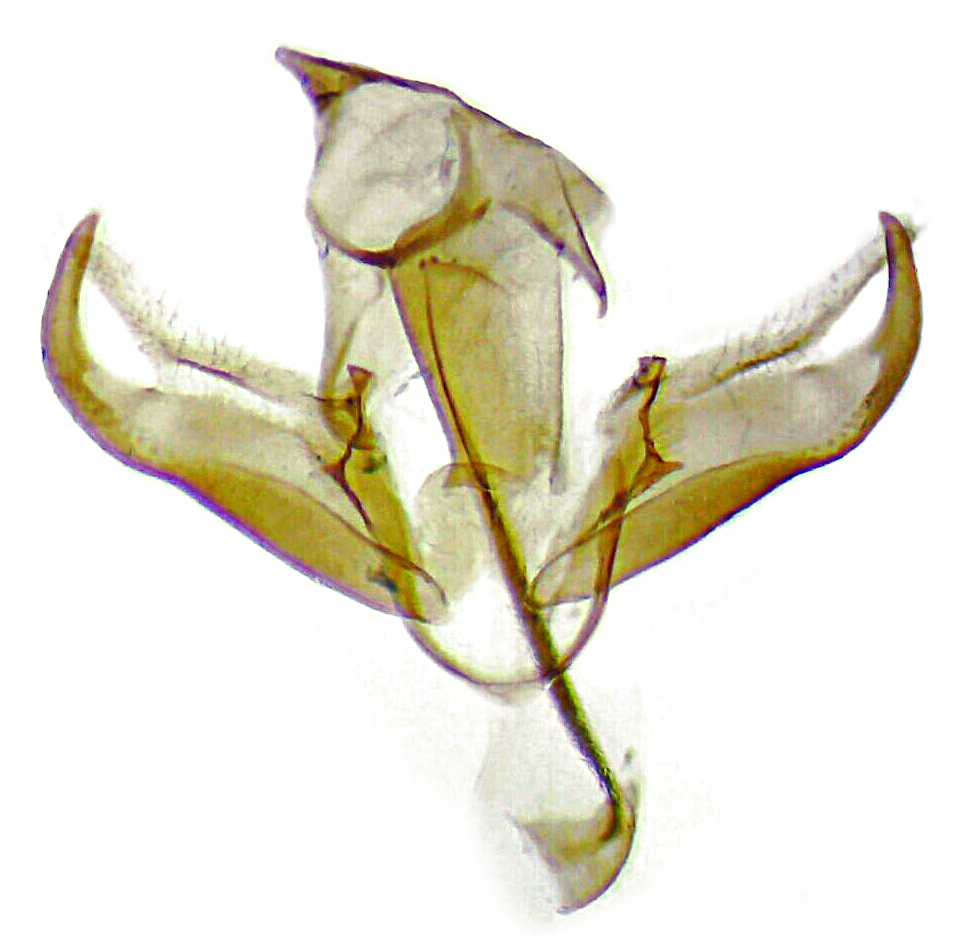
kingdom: Animalia
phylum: Arthropoda
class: Insecta
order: Lepidoptera
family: Blastobasidae
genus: Holcocera
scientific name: Holcocera chalcofrontella
